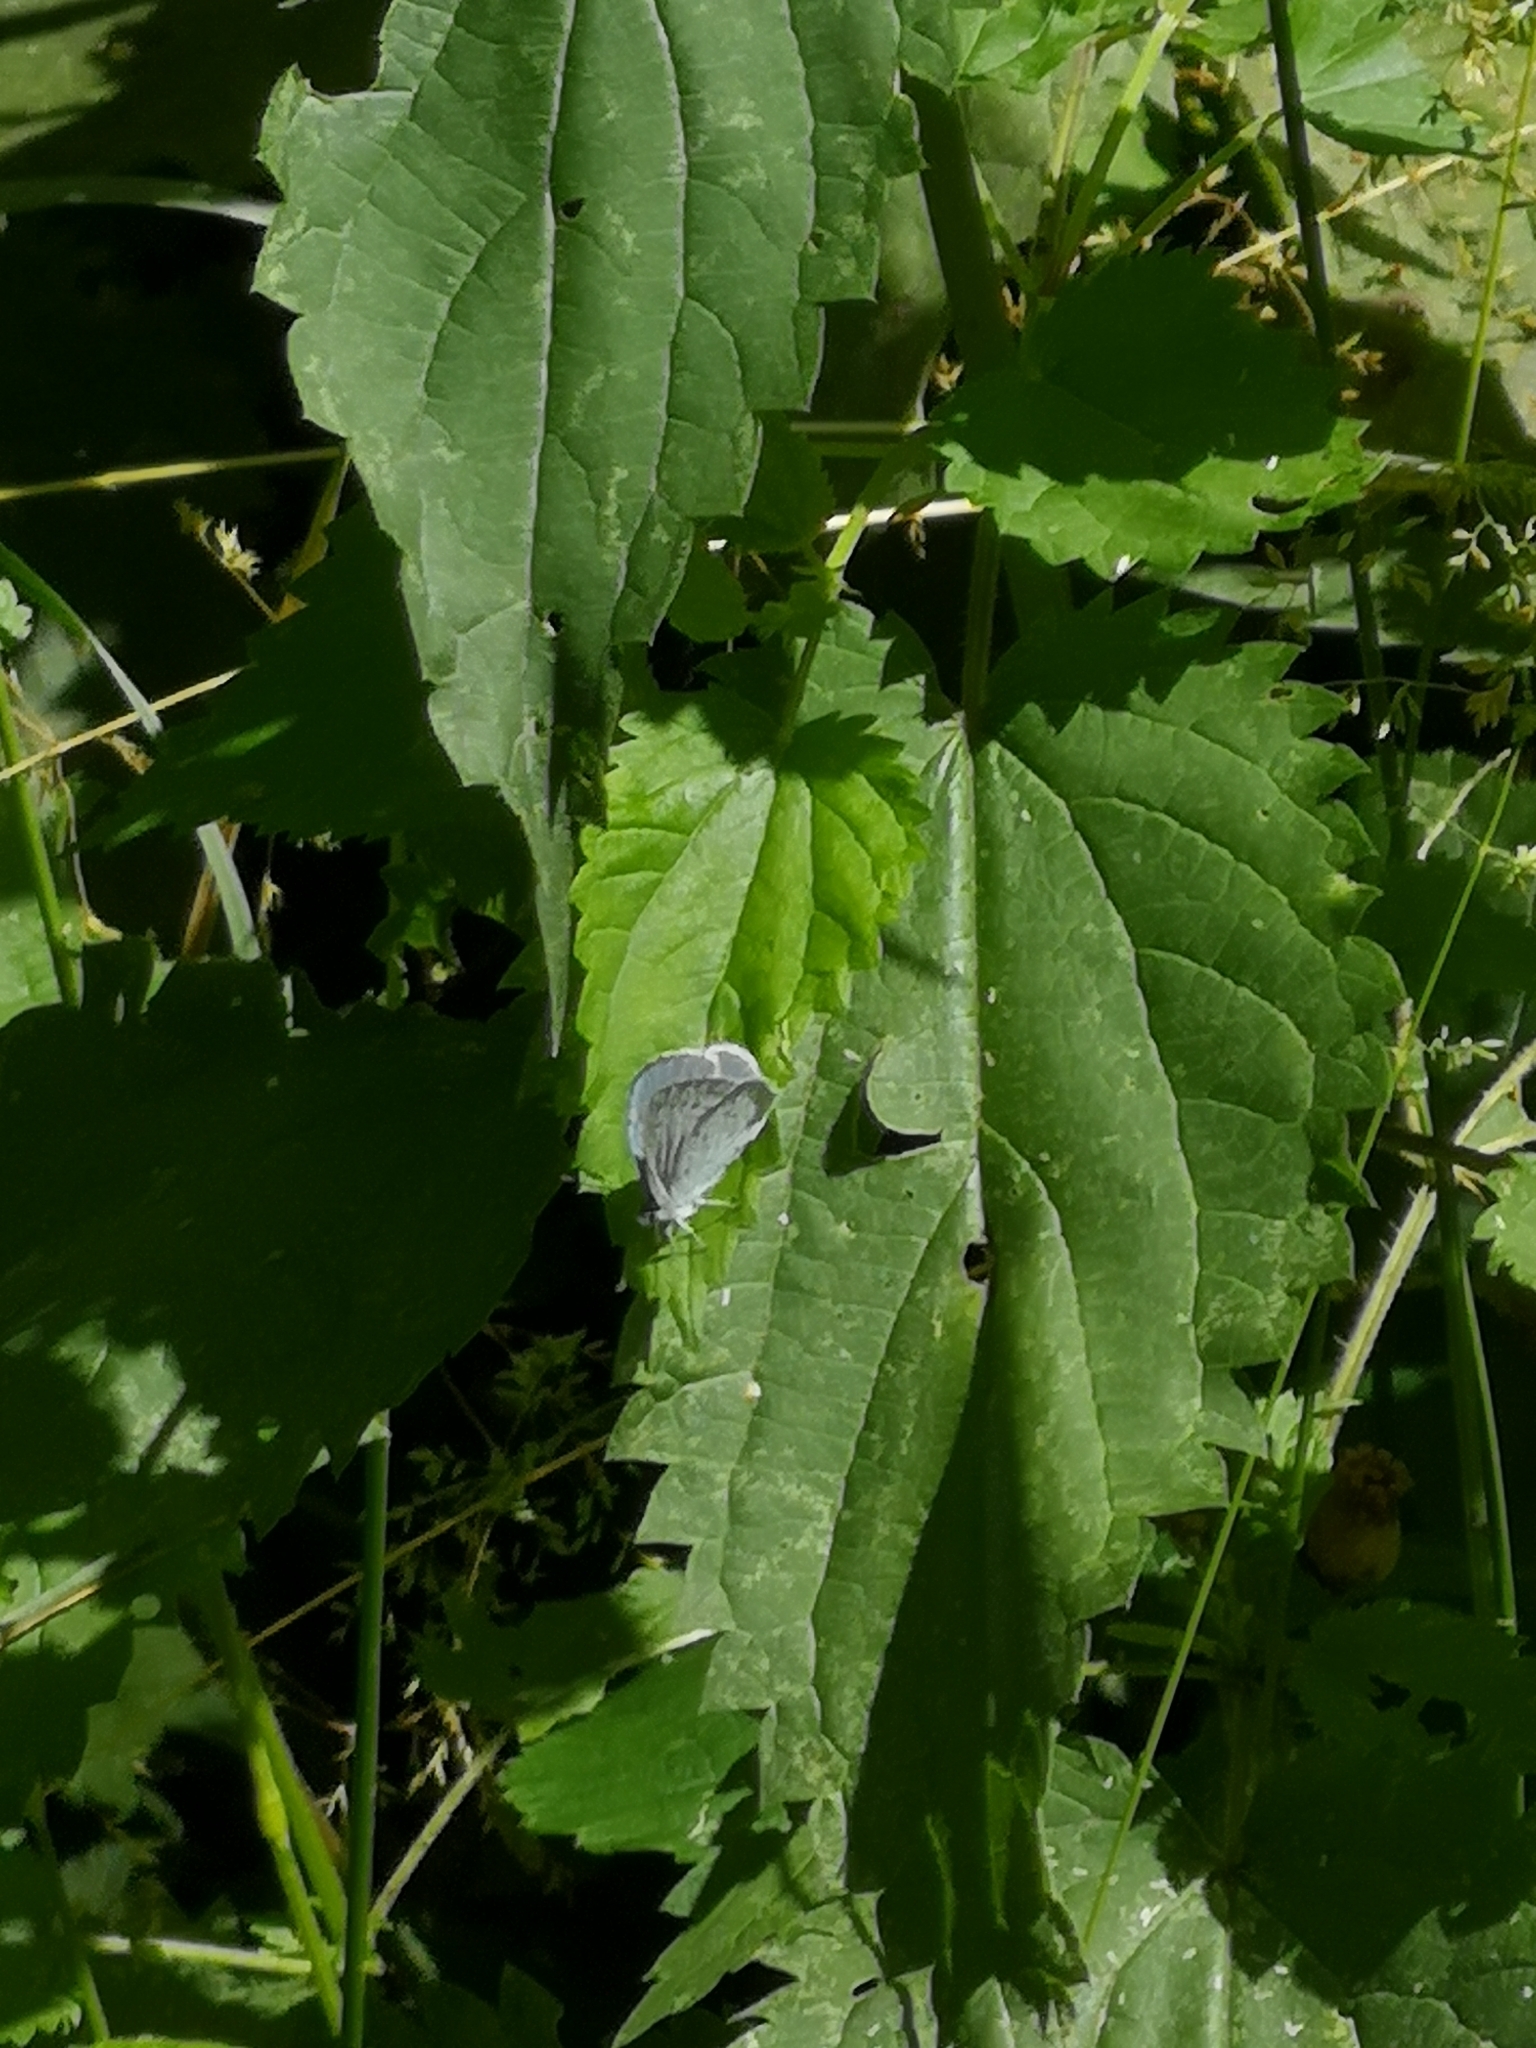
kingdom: Animalia
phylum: Arthropoda
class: Insecta
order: Lepidoptera
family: Lycaenidae
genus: Celastrina
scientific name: Celastrina argiolus
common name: Holly blue
